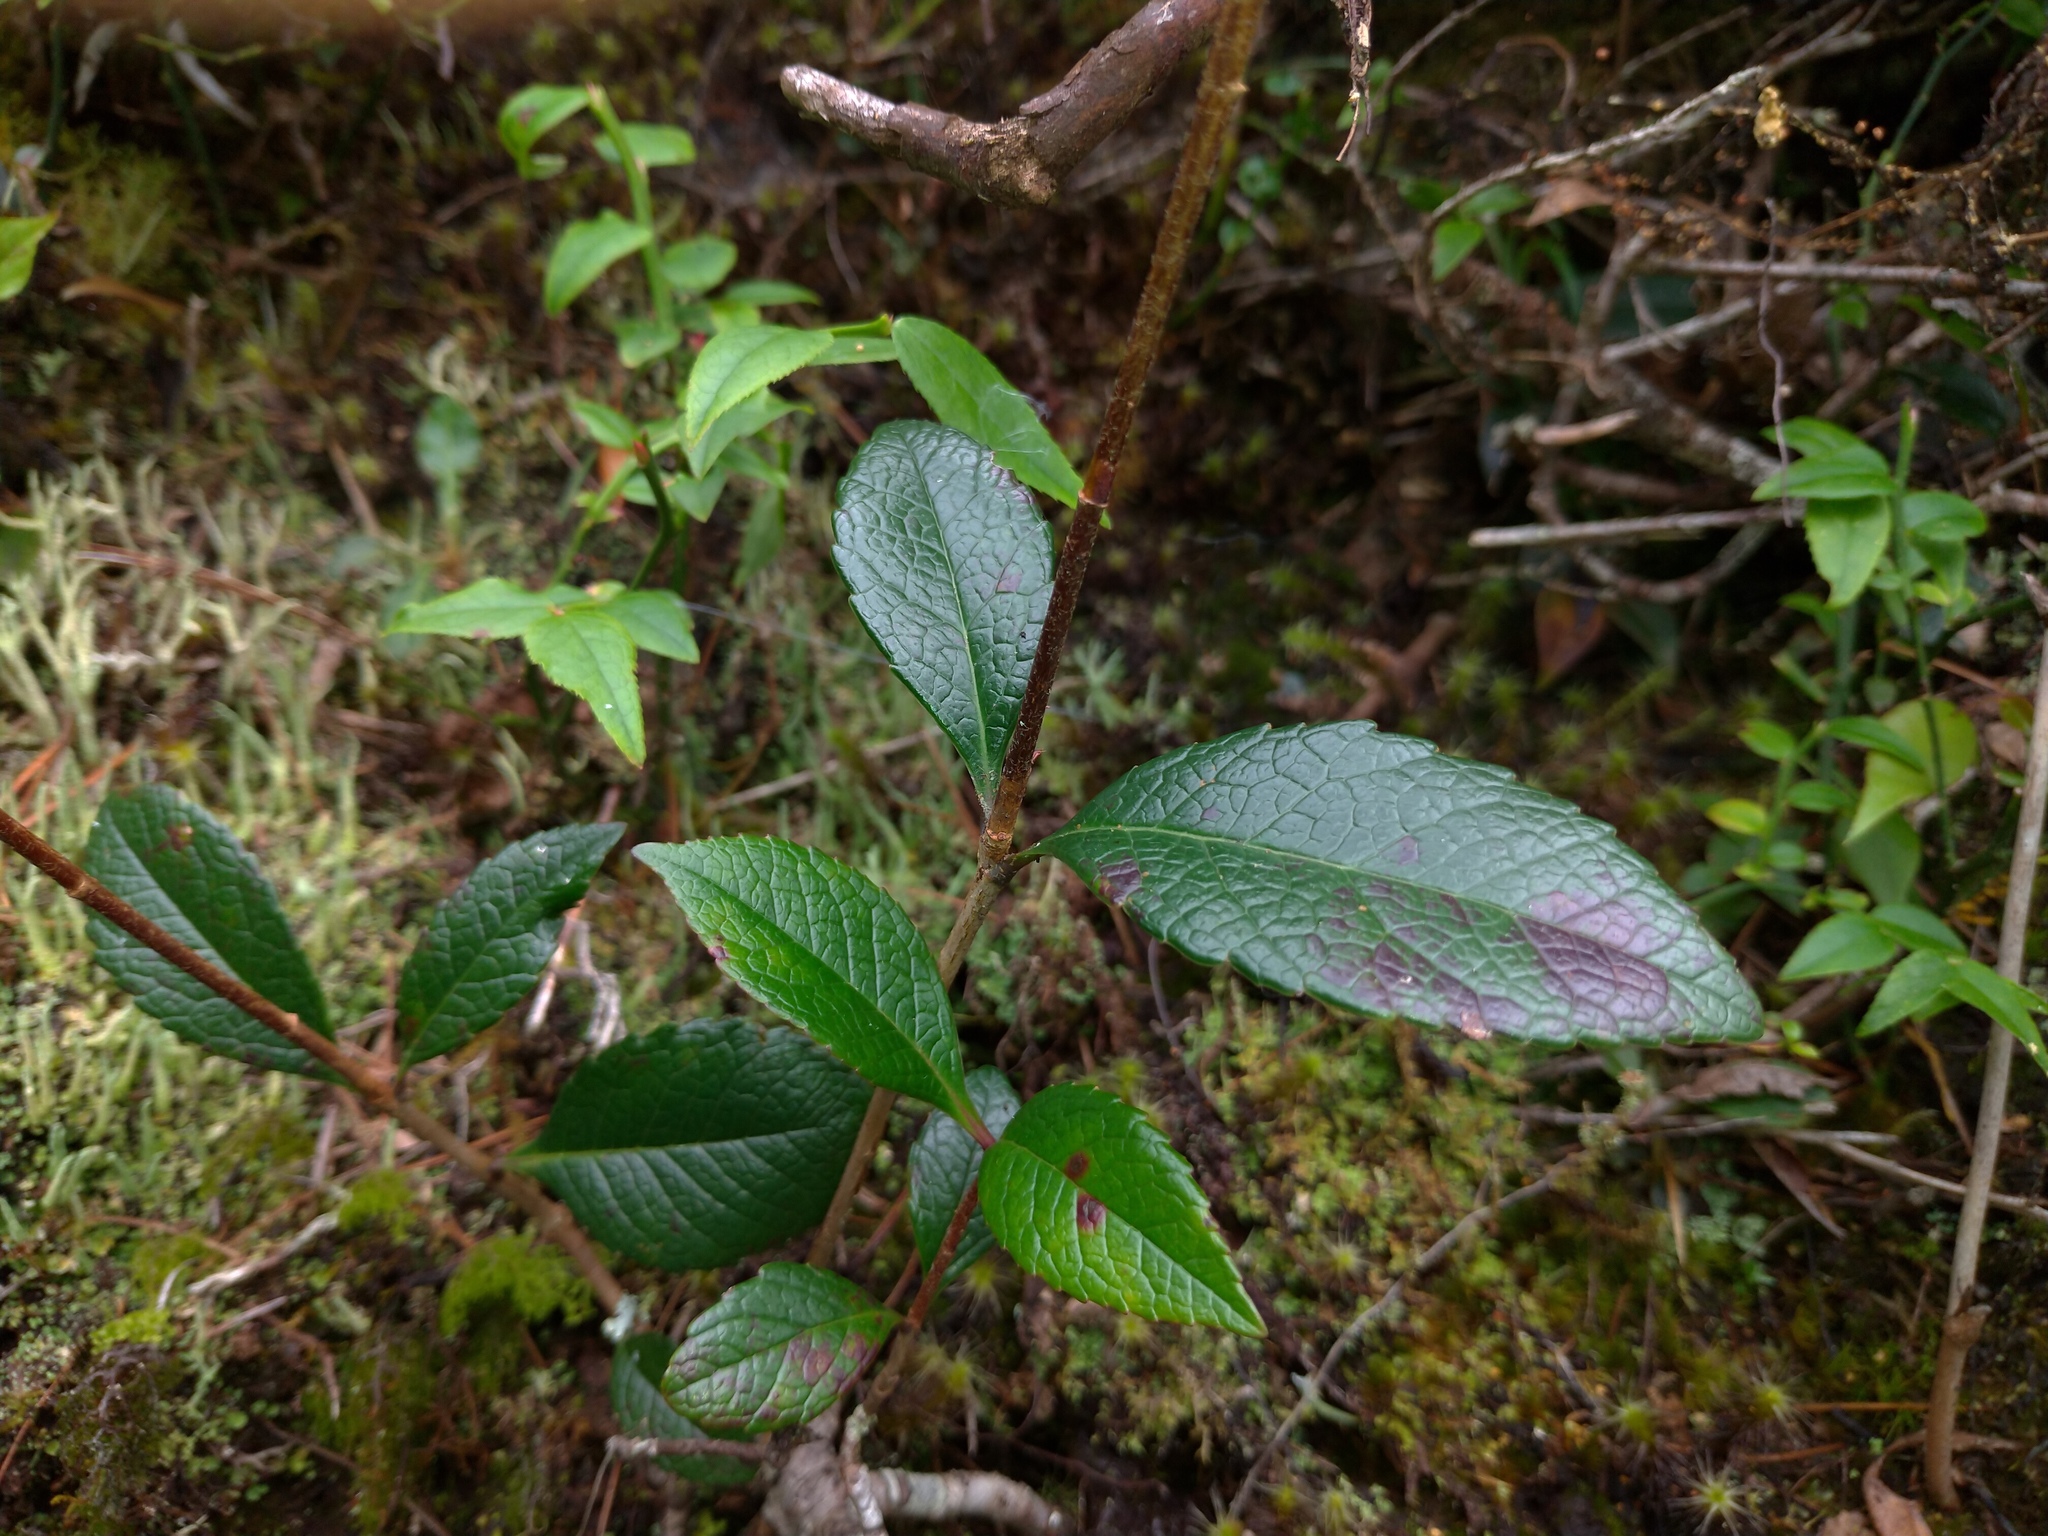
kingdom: Plantae
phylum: Tracheophyta
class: Magnoliopsida
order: Rosales
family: Rosaceae
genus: Rhaphiolepis
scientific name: Rhaphiolepis indica
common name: India-hawthorn
